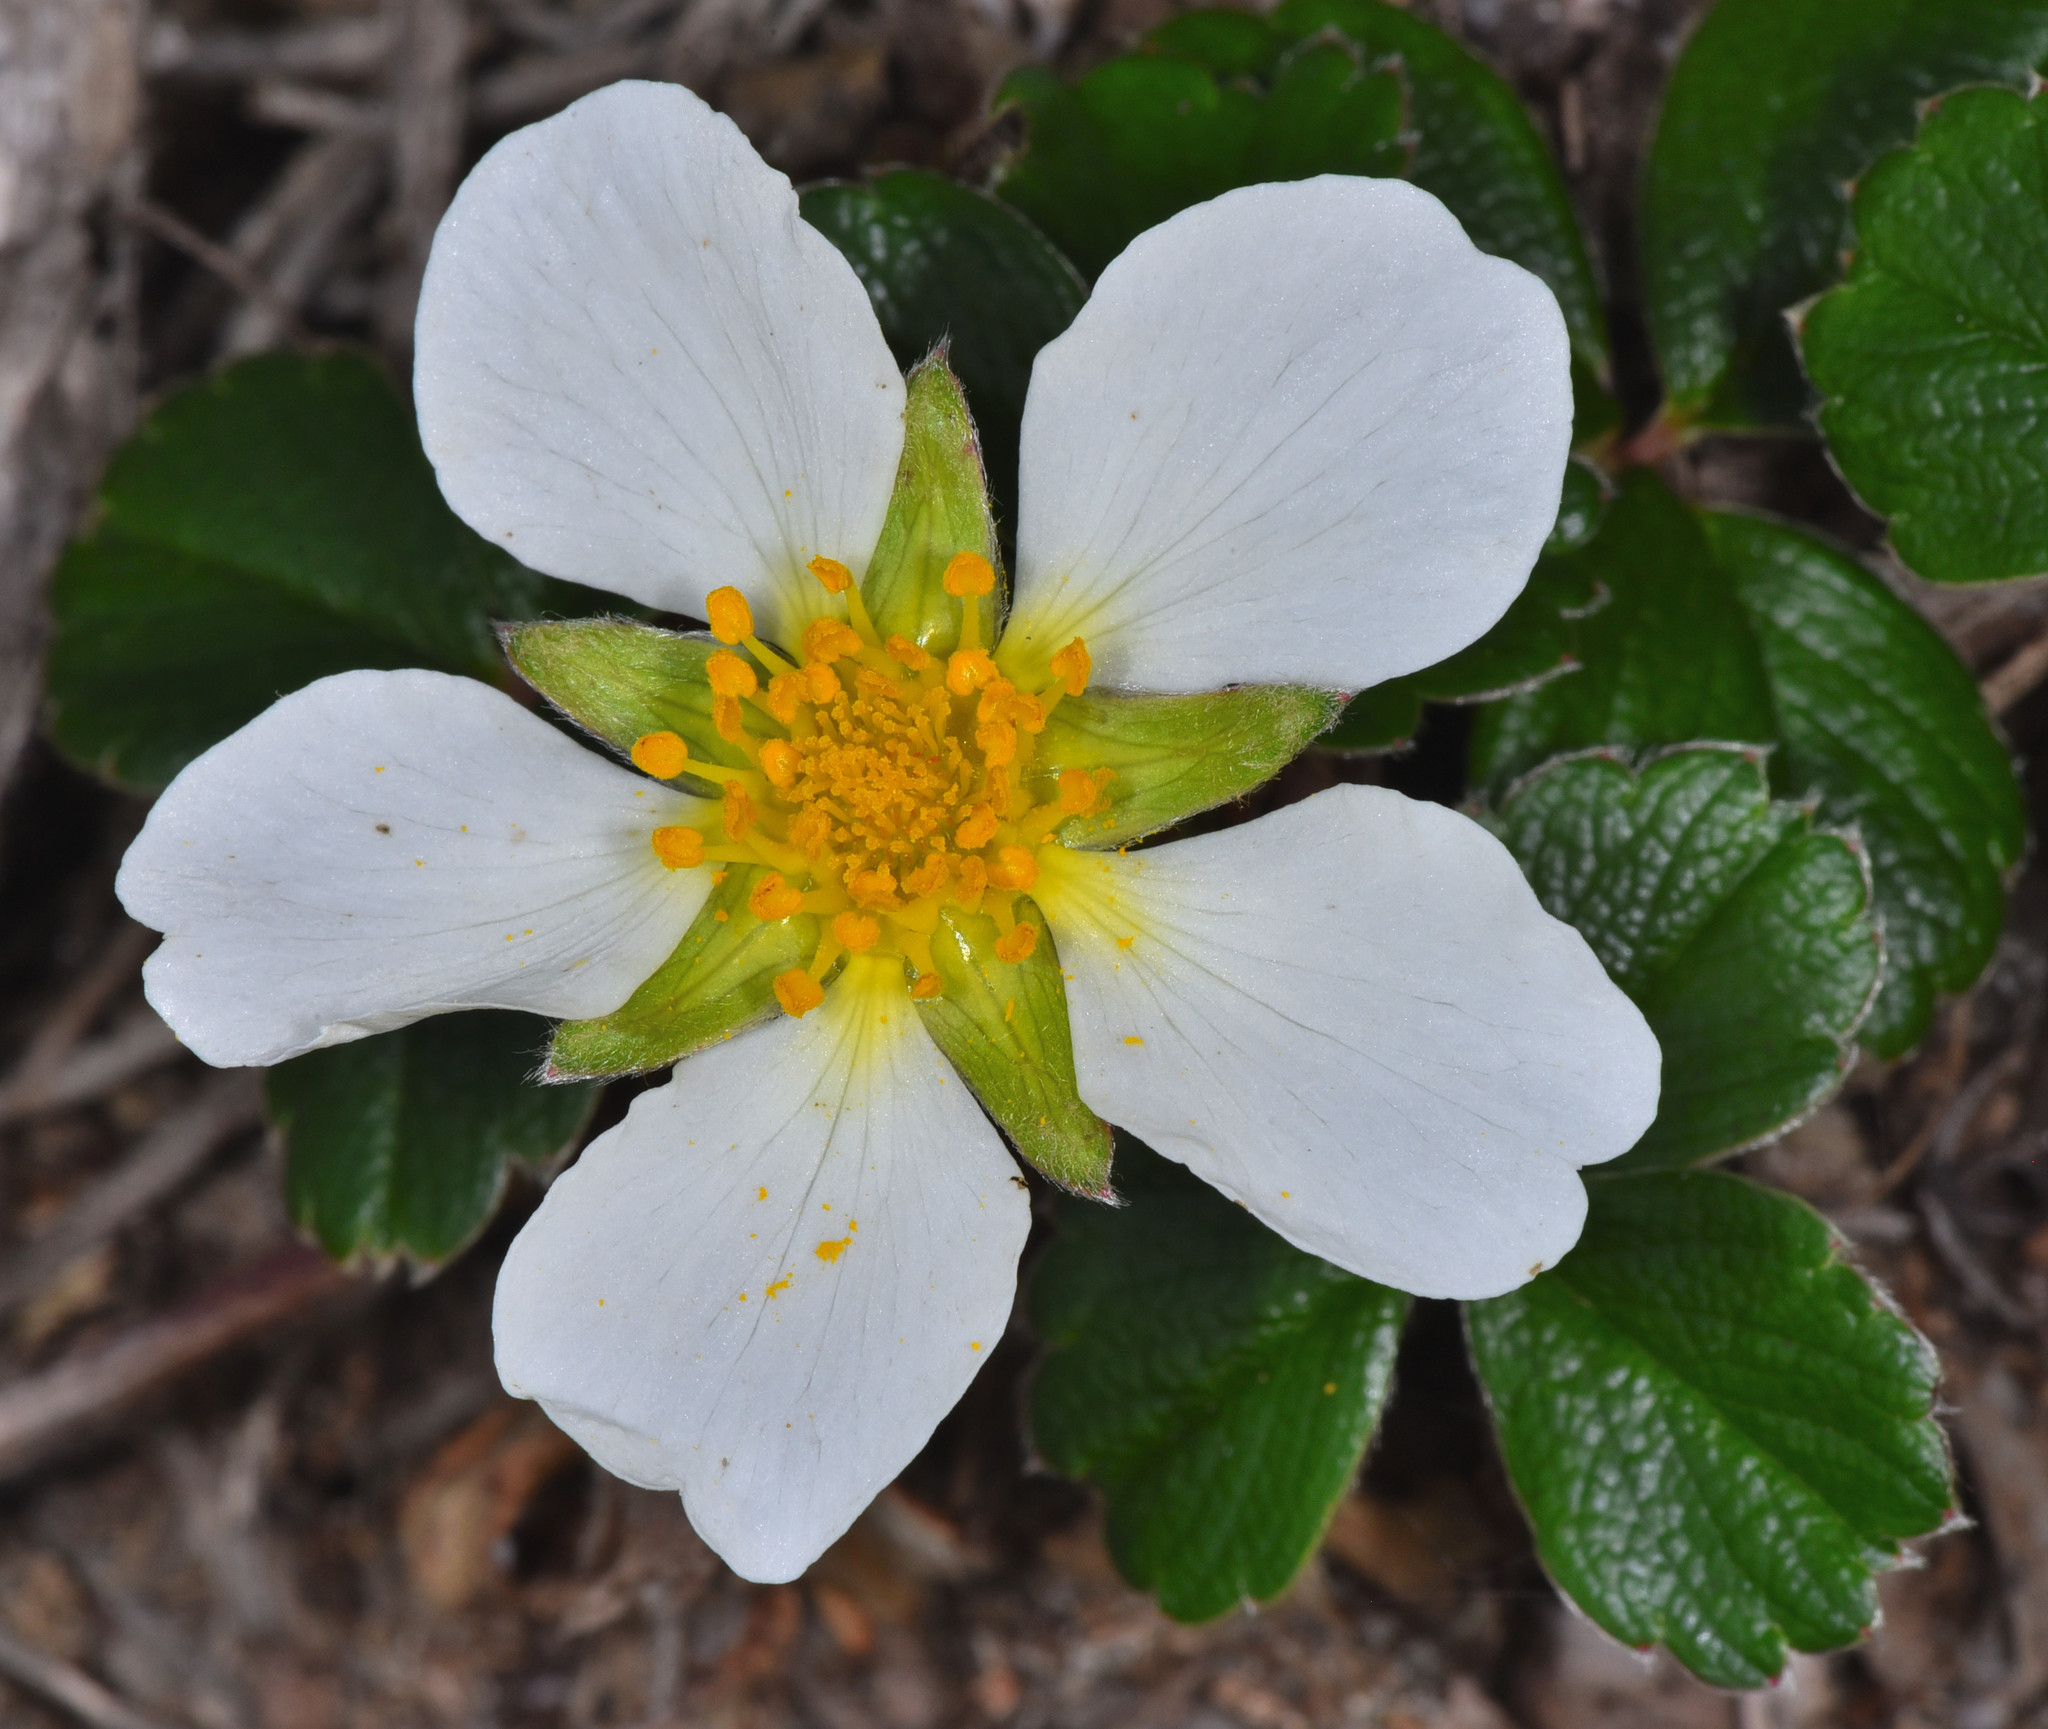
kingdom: Plantae
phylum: Tracheophyta
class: Magnoliopsida
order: Rosales
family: Rosaceae
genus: Fragaria
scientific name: Fragaria chiloensis
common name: Beach strawberry
